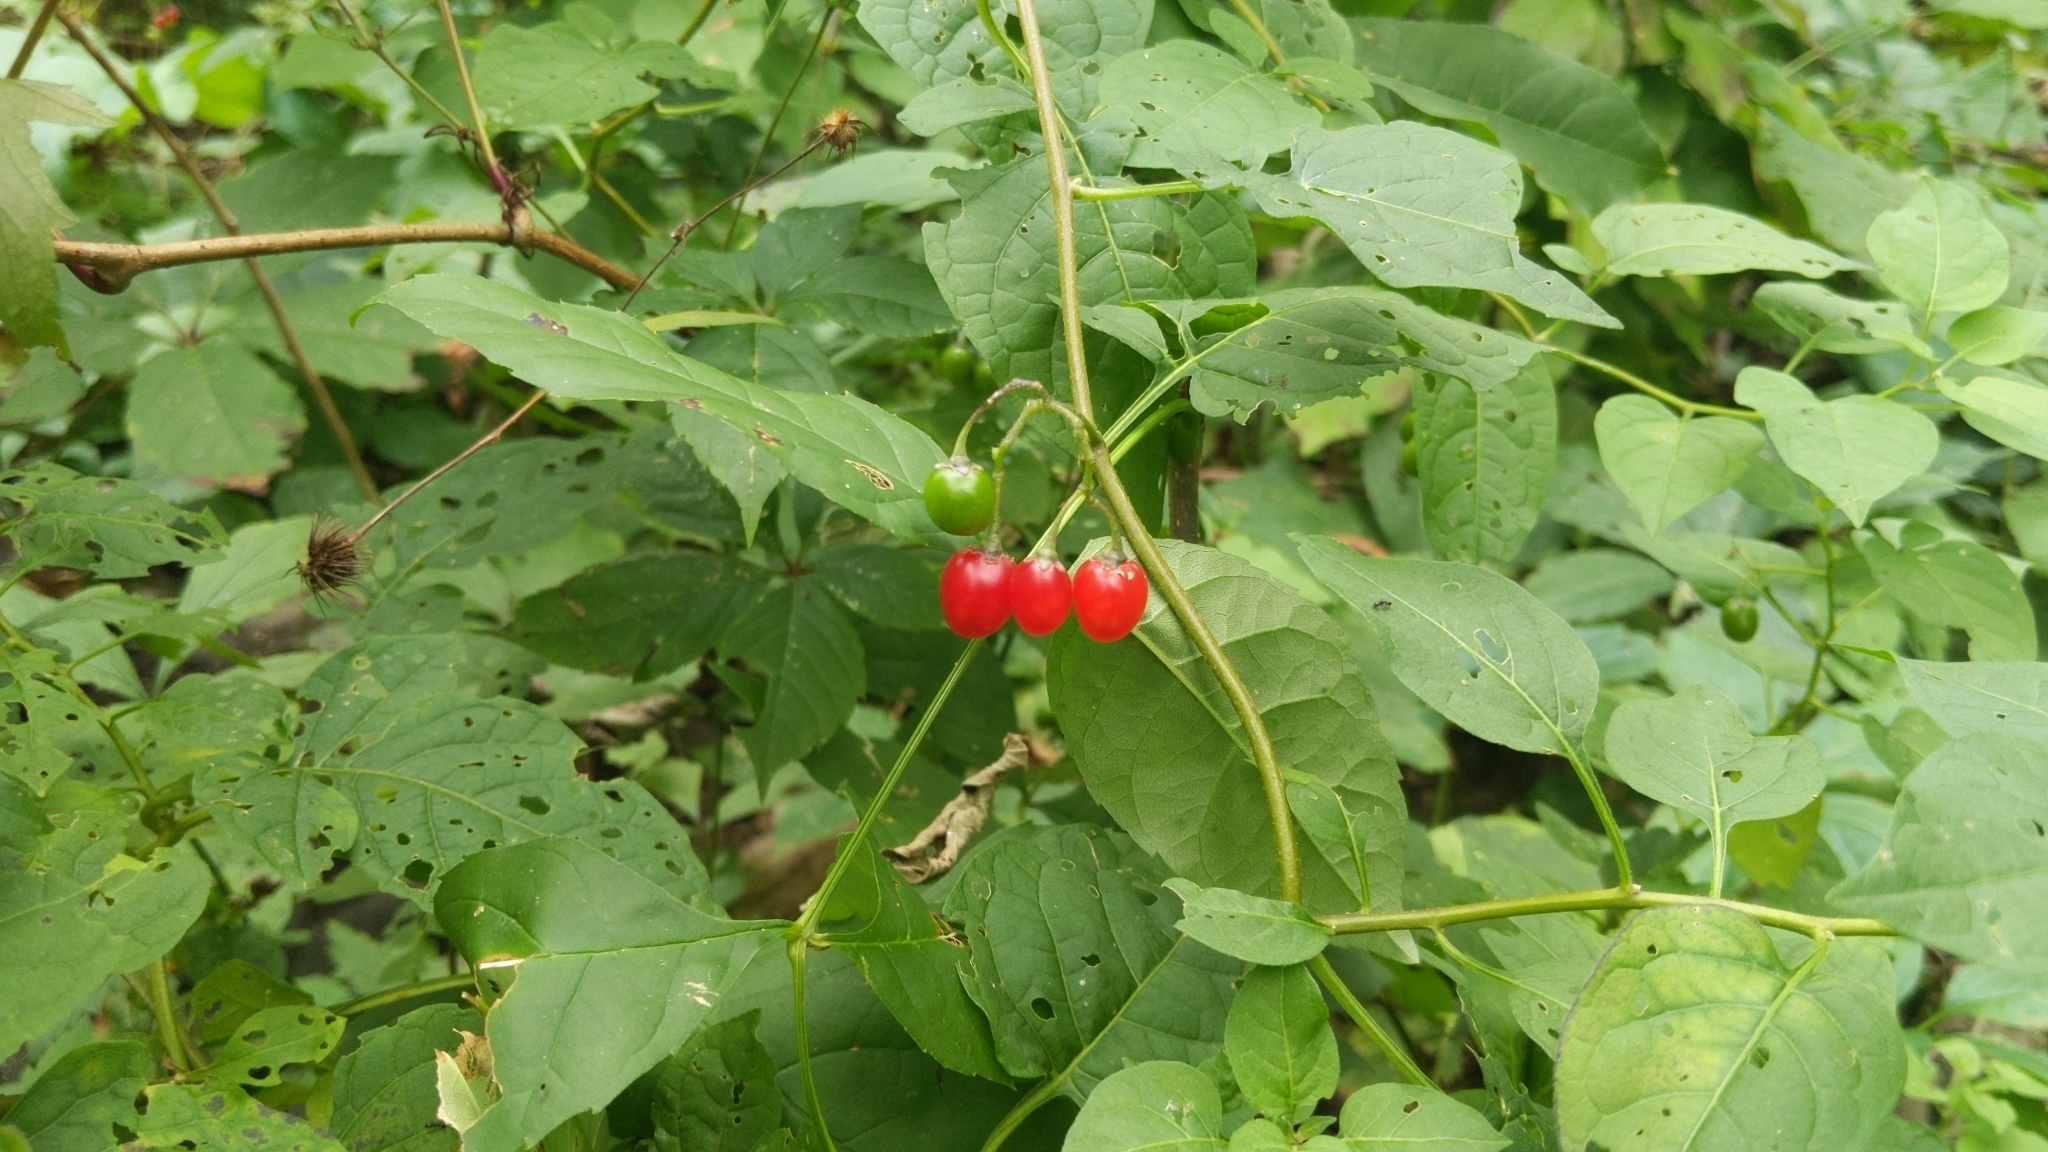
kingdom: Plantae
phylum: Tracheophyta
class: Magnoliopsida
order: Solanales
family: Solanaceae
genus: Solanum
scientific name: Solanum dulcamara
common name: Climbing nightshade
